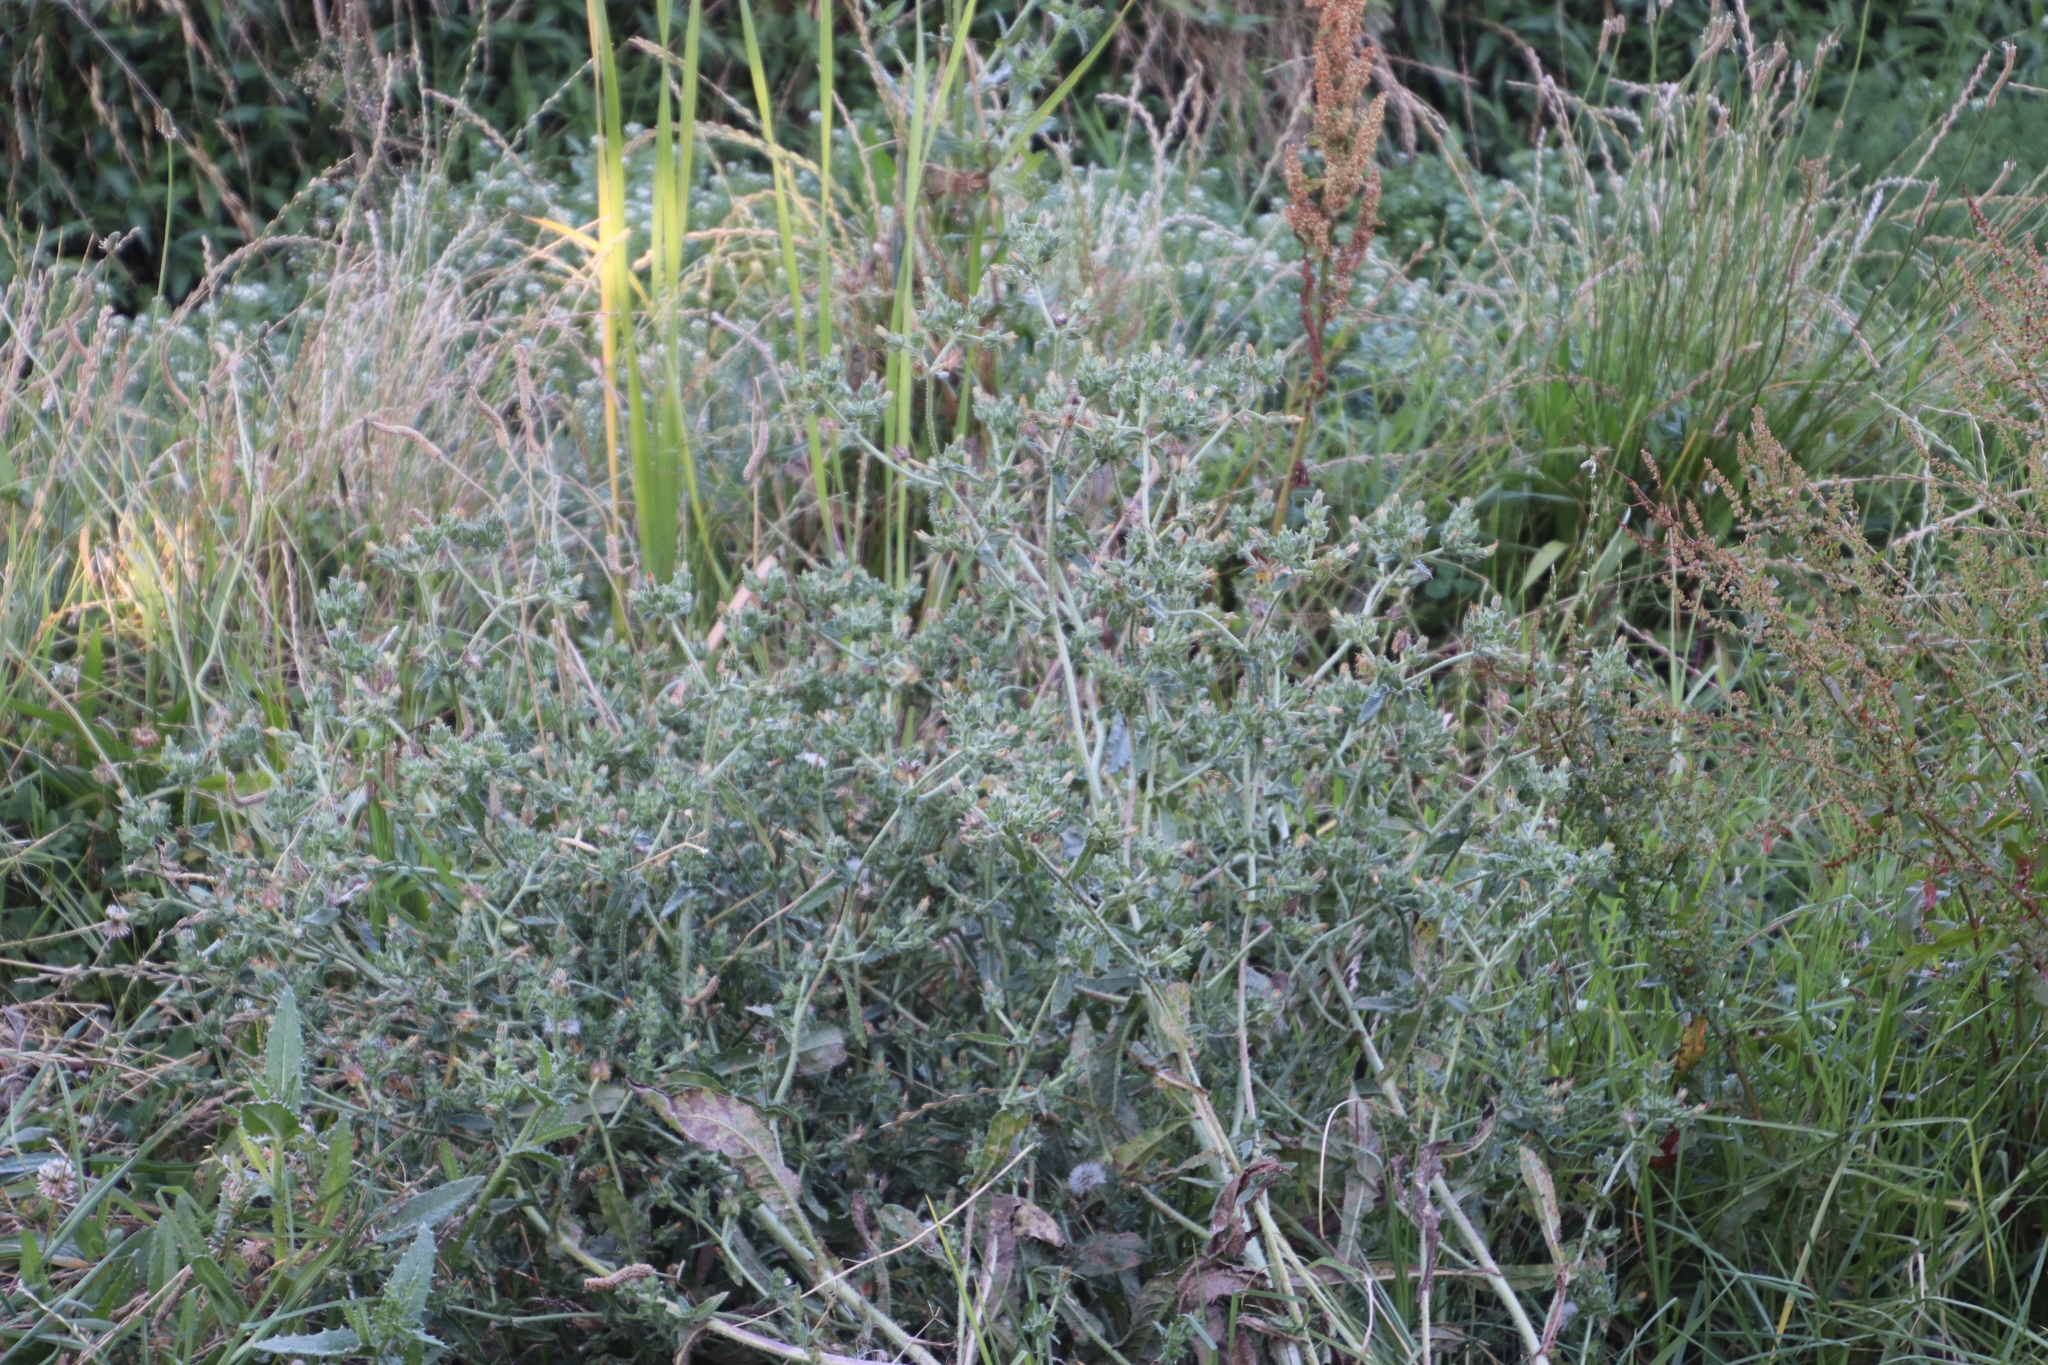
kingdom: Plantae
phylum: Tracheophyta
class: Magnoliopsida
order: Asterales
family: Asteraceae
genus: Helminthotheca
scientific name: Helminthotheca echioides
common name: Ox-tongue
